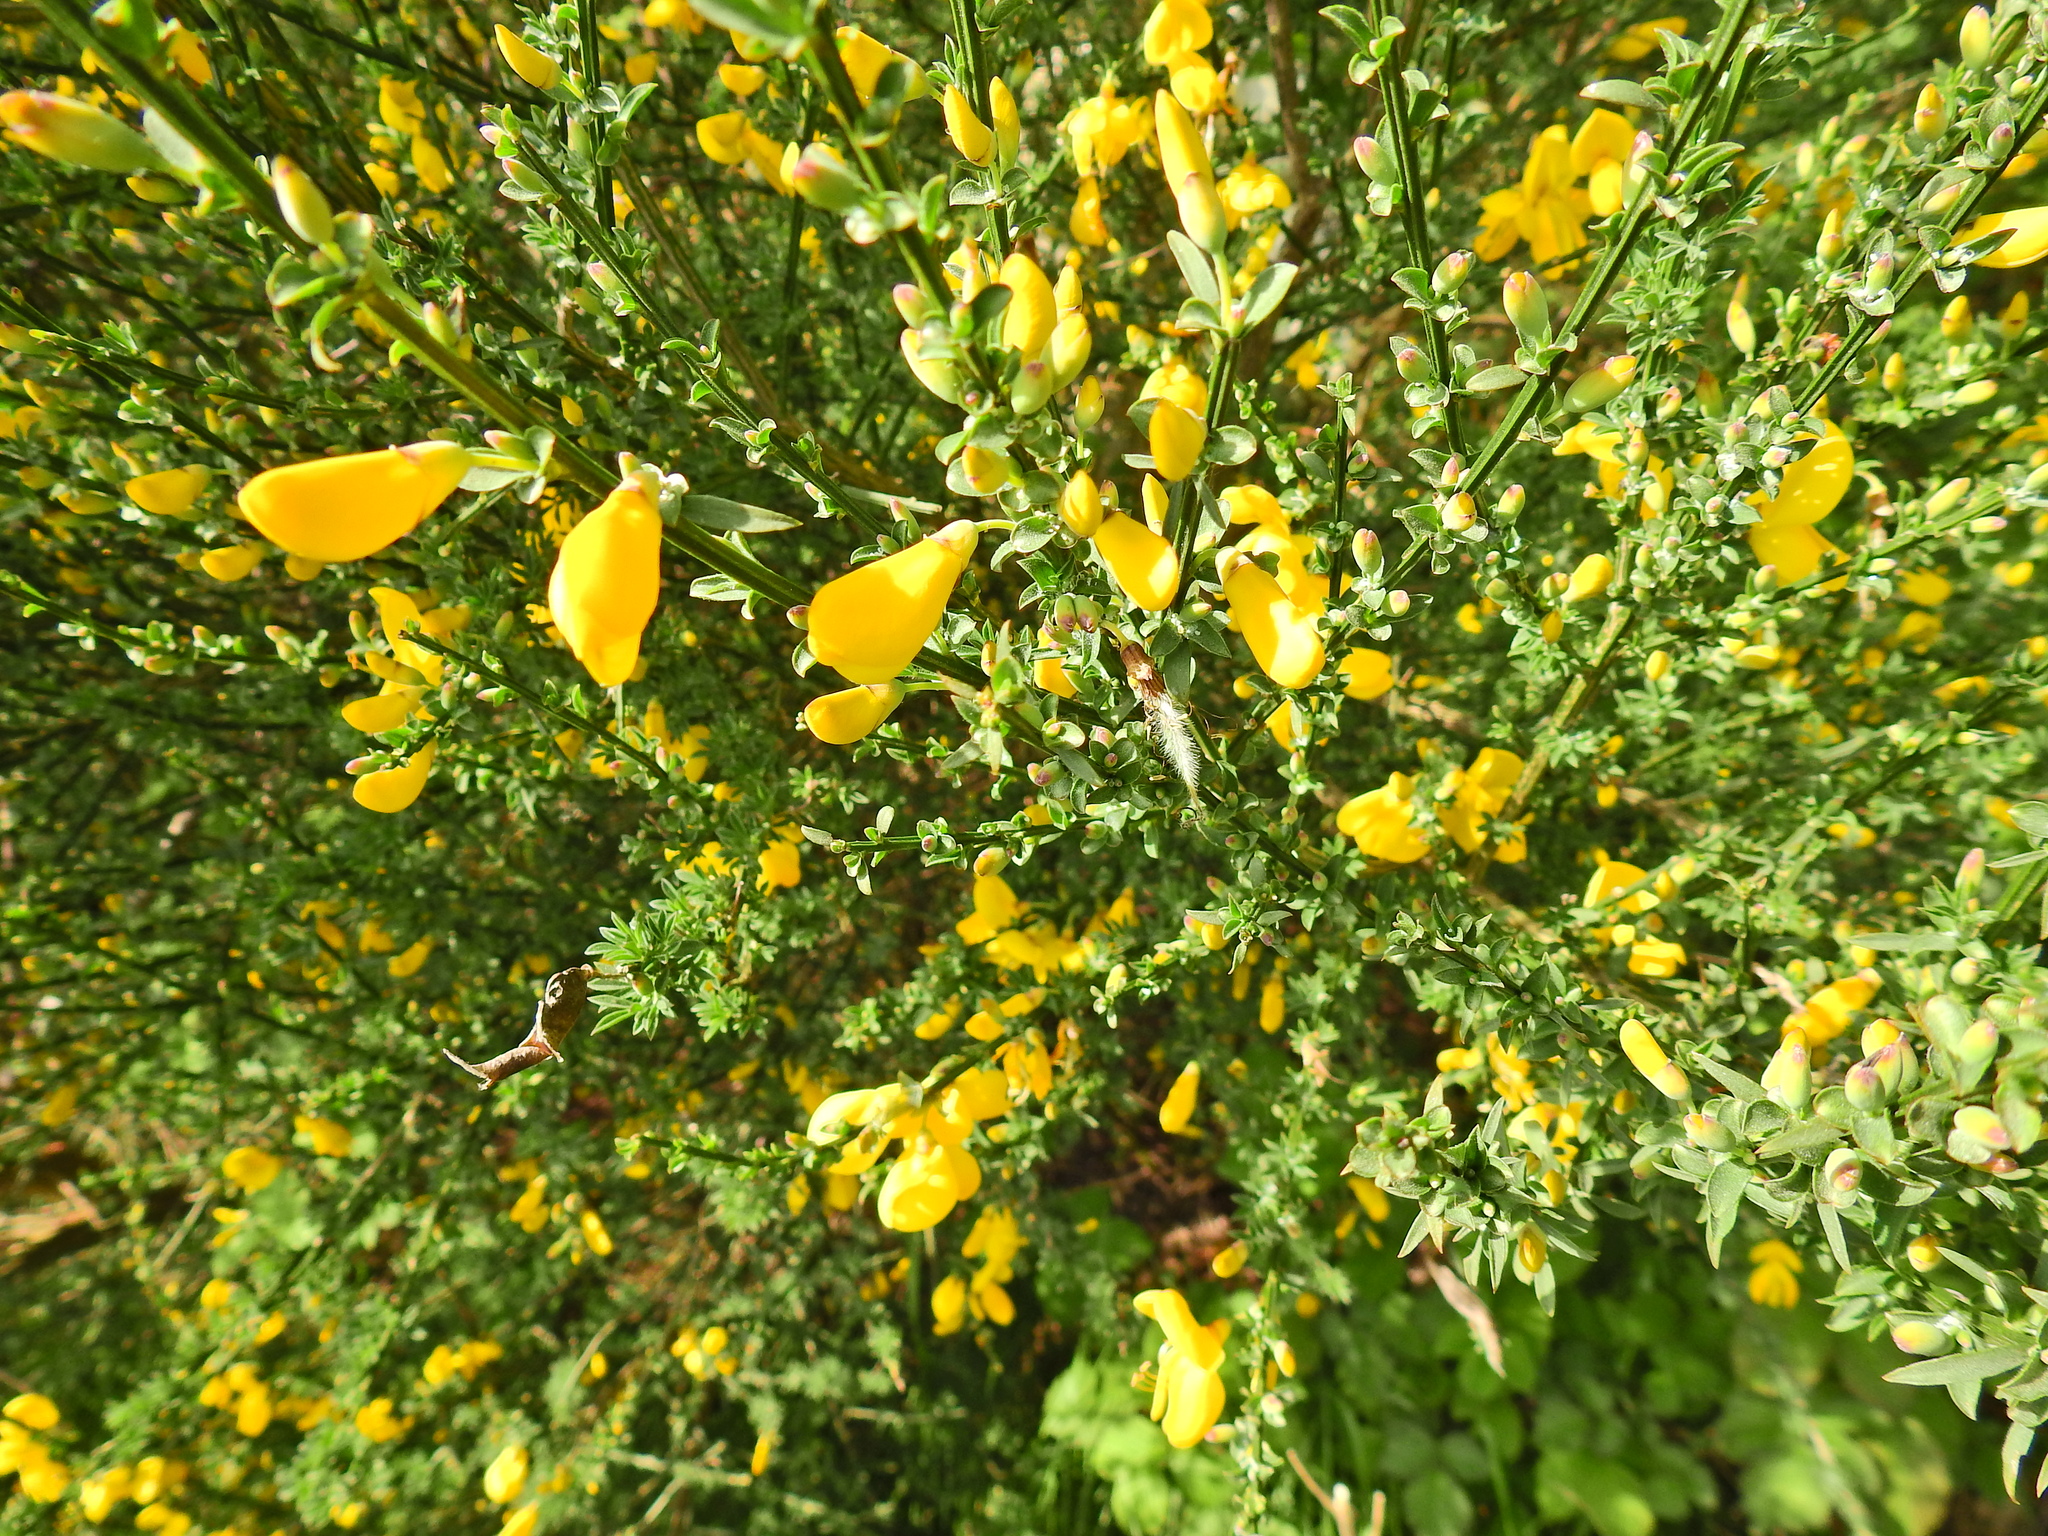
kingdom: Plantae
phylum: Tracheophyta
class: Magnoliopsida
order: Fabales
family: Fabaceae
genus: Cytisus
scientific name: Cytisus scoparius
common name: Scotch broom
